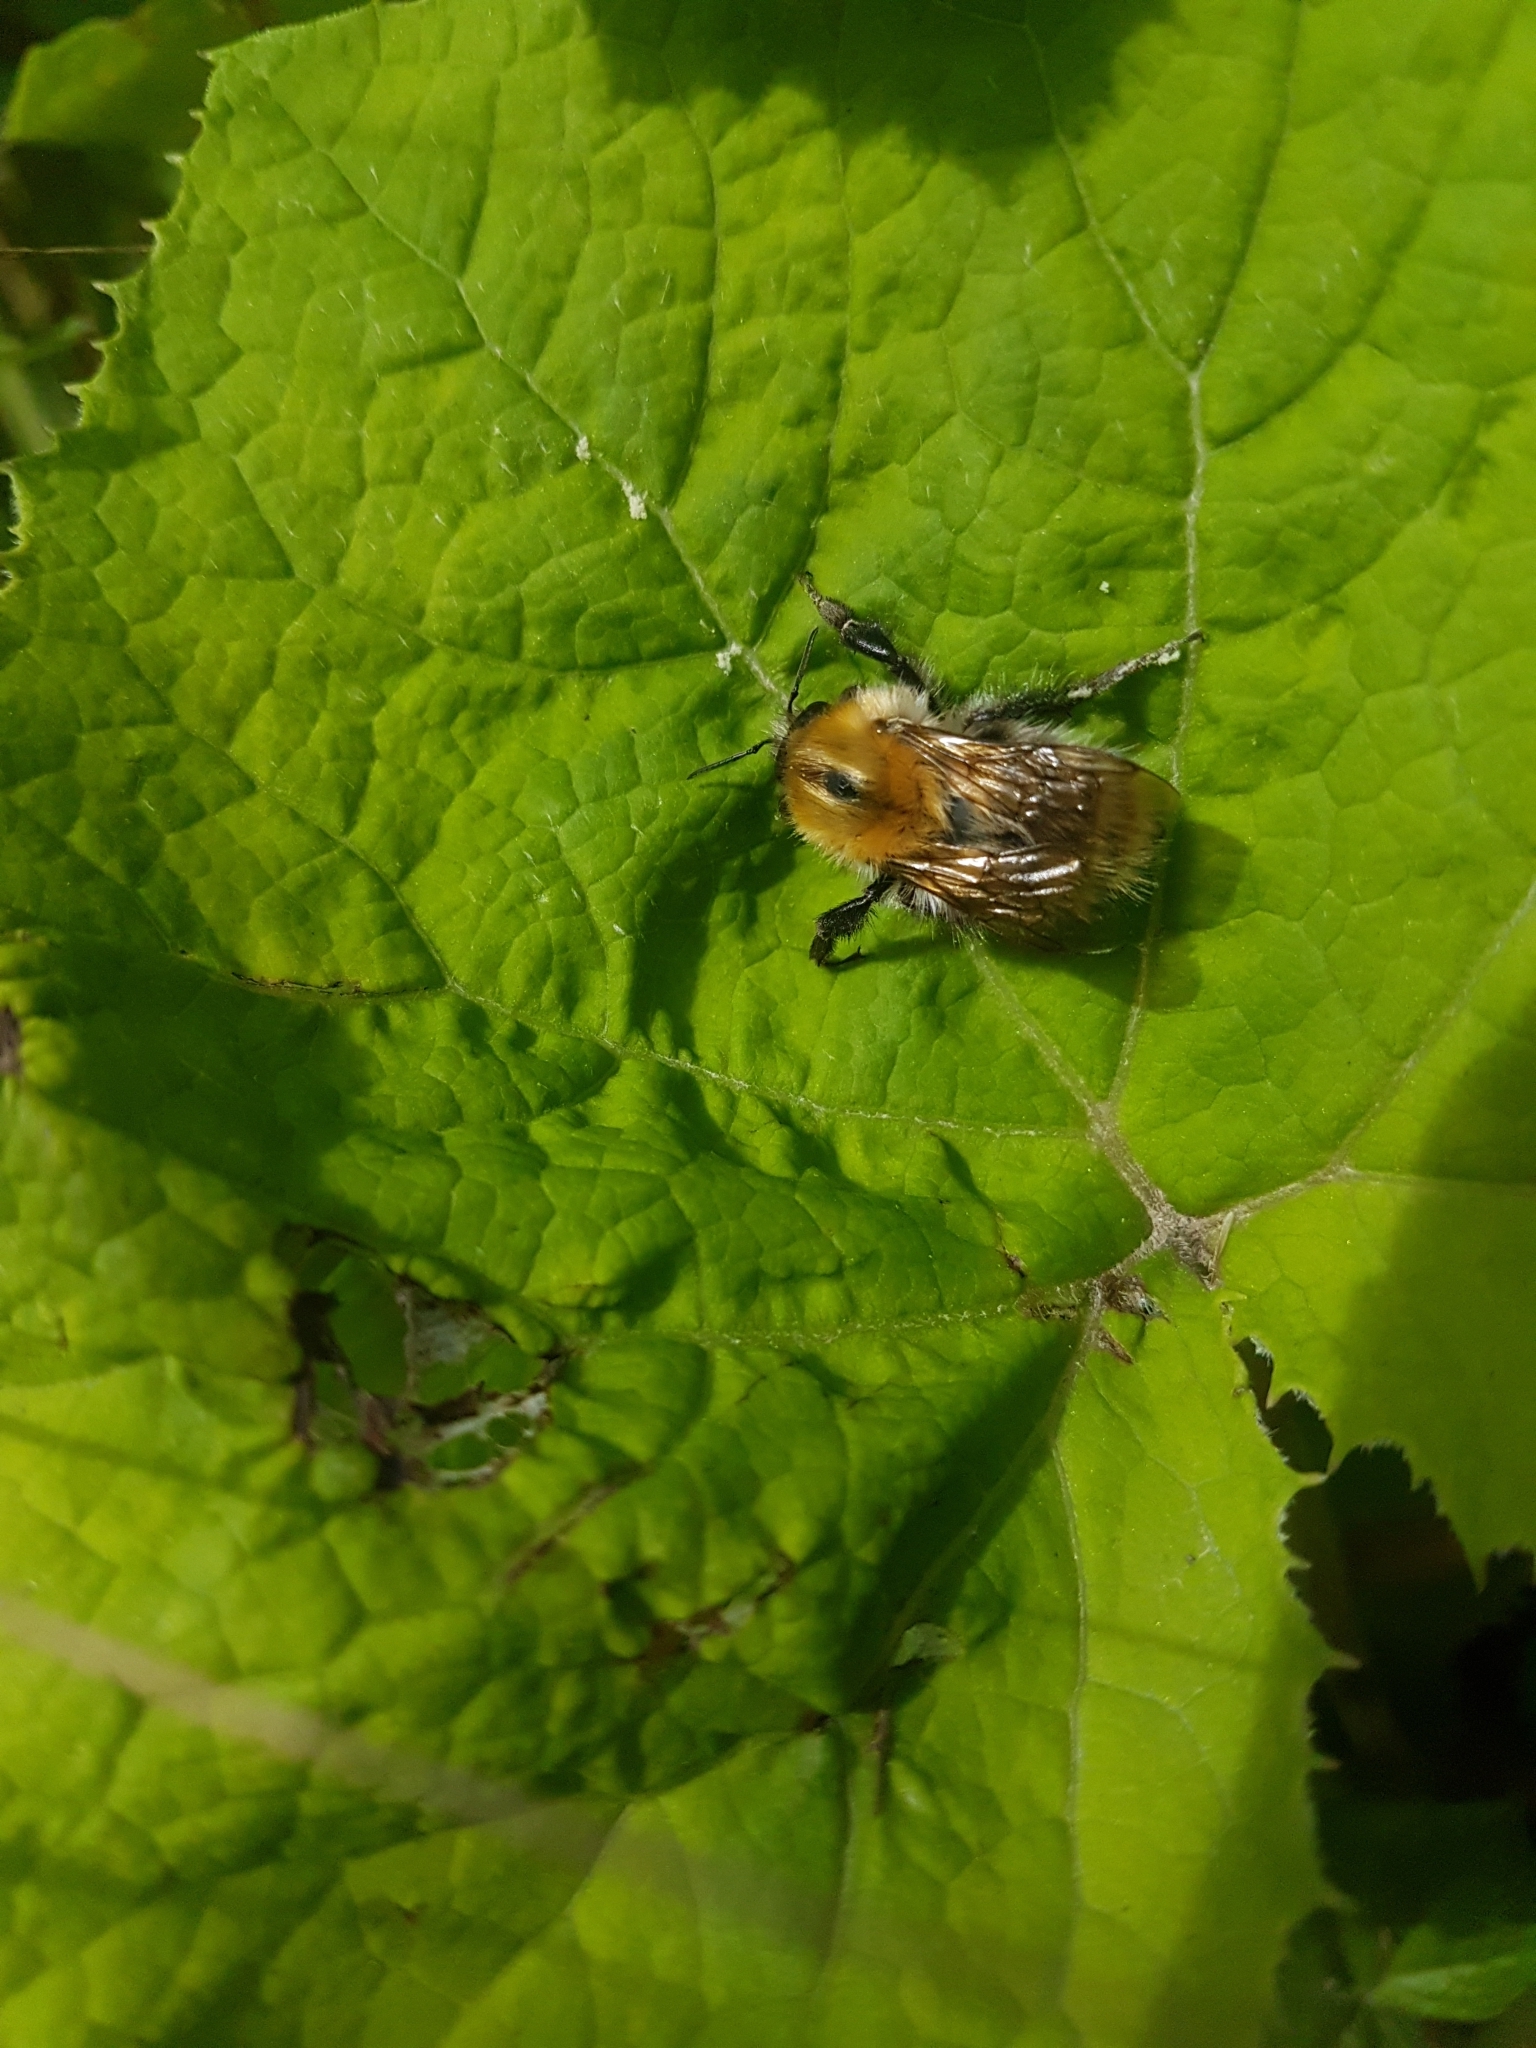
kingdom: Animalia
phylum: Arthropoda
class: Insecta
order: Hymenoptera
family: Apidae
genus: Bombus
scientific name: Bombus pascuorum
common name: Common carder bee
